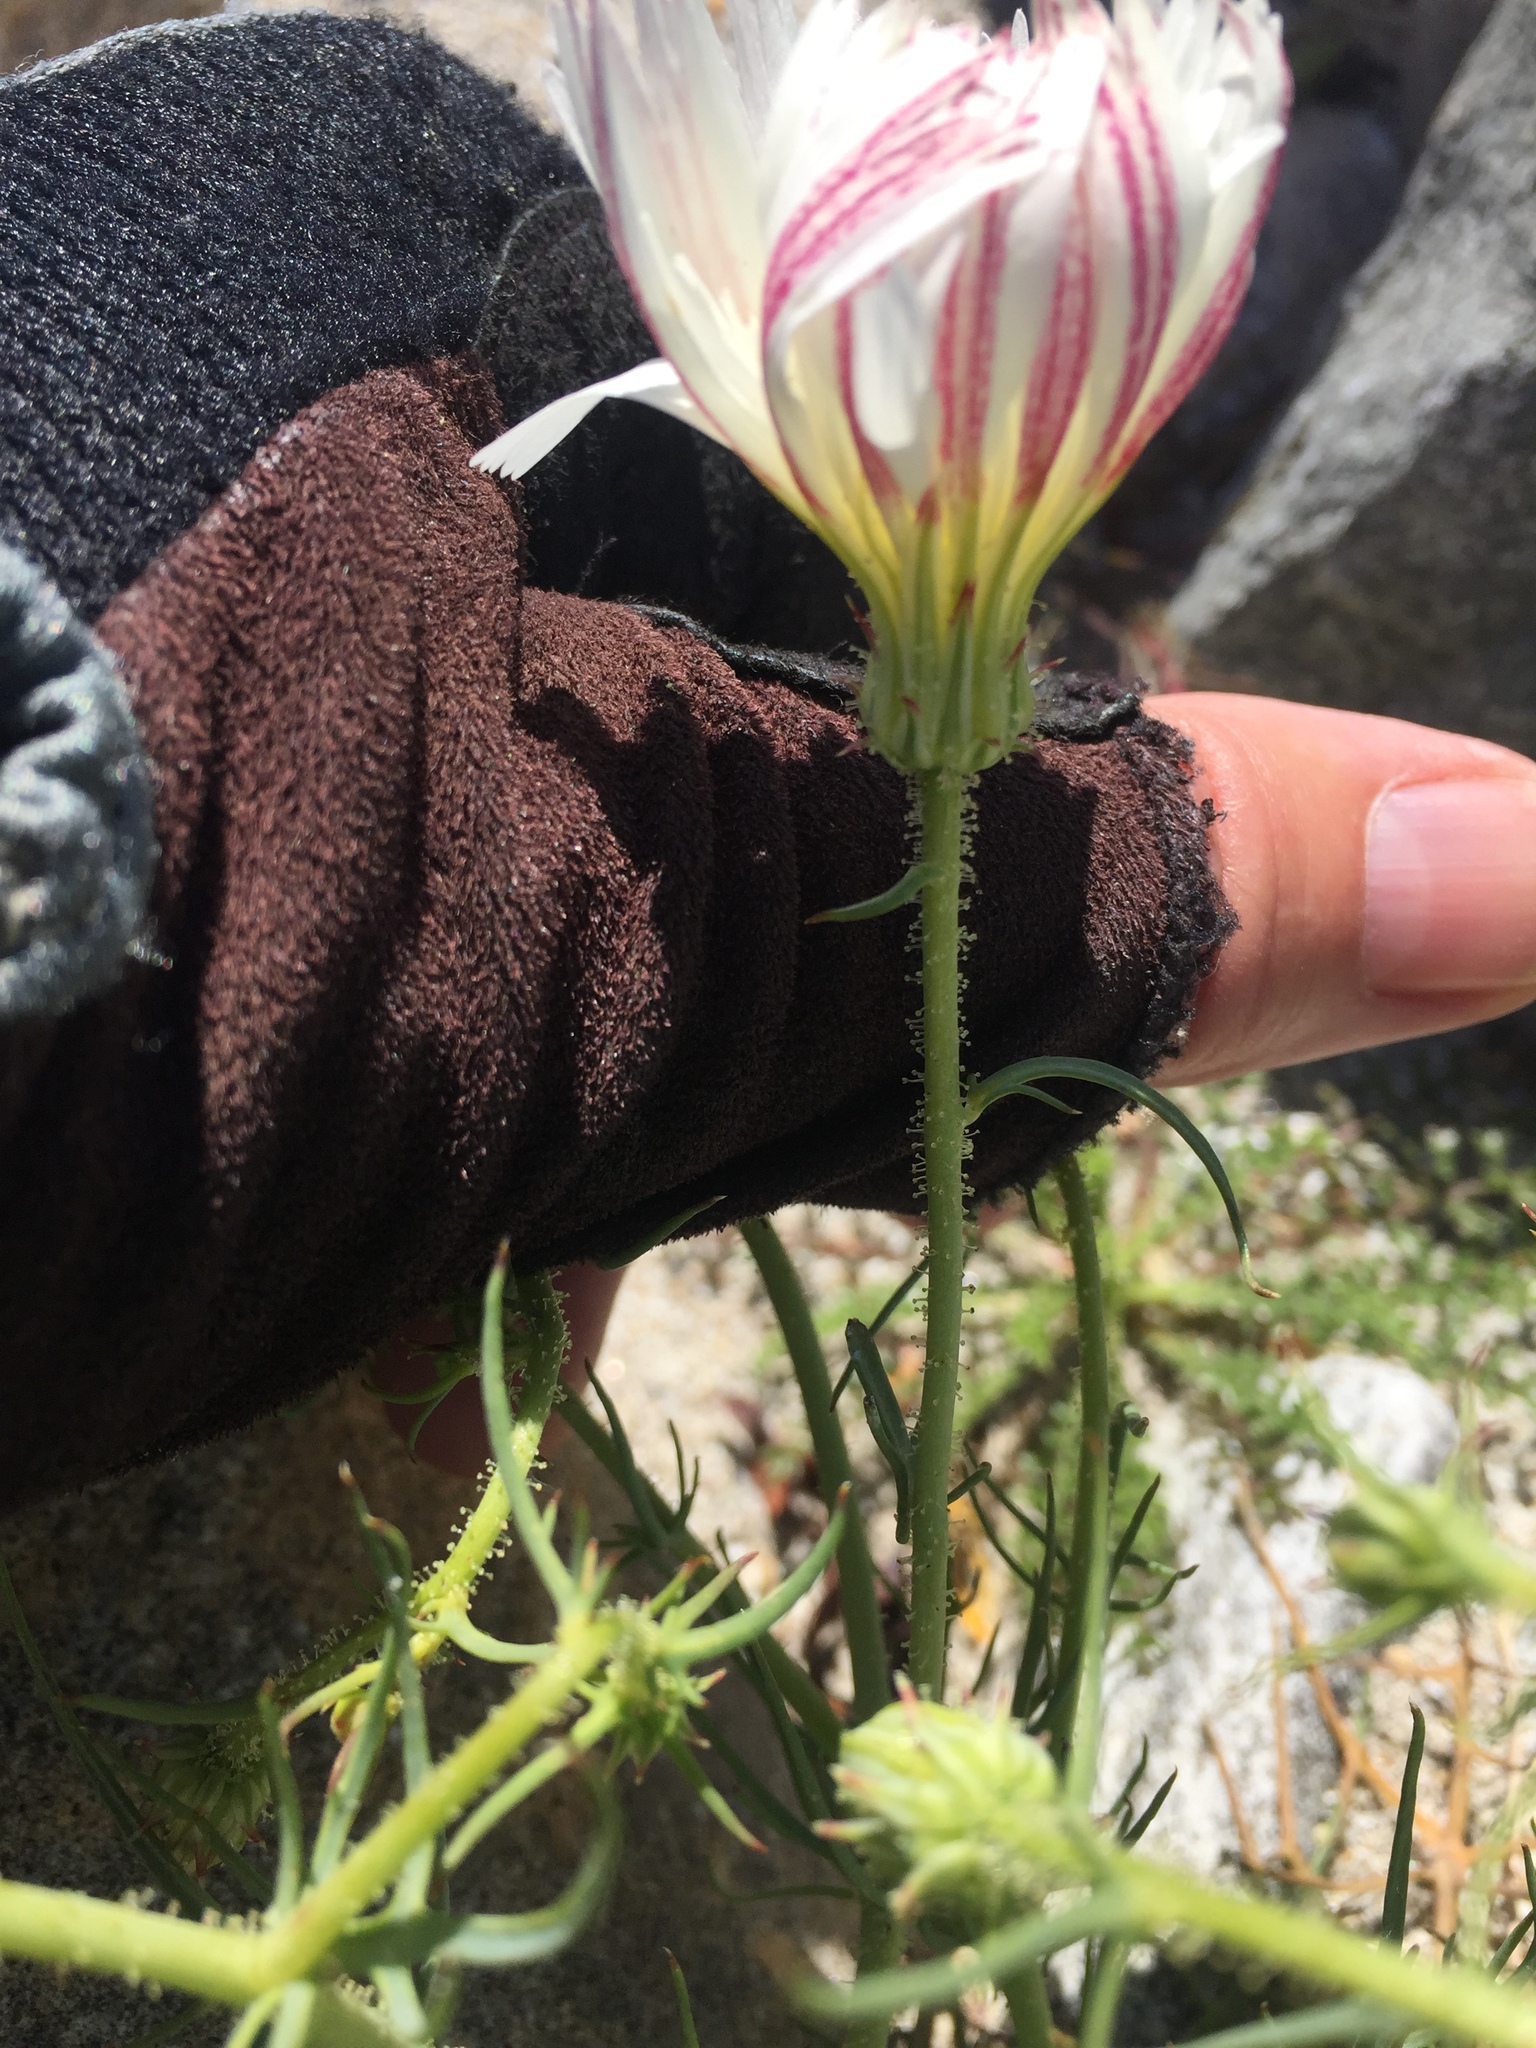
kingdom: Plantae
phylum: Tracheophyta
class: Magnoliopsida
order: Asterales
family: Asteraceae
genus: Calycoseris
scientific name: Calycoseris wrightii
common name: White tackstem
